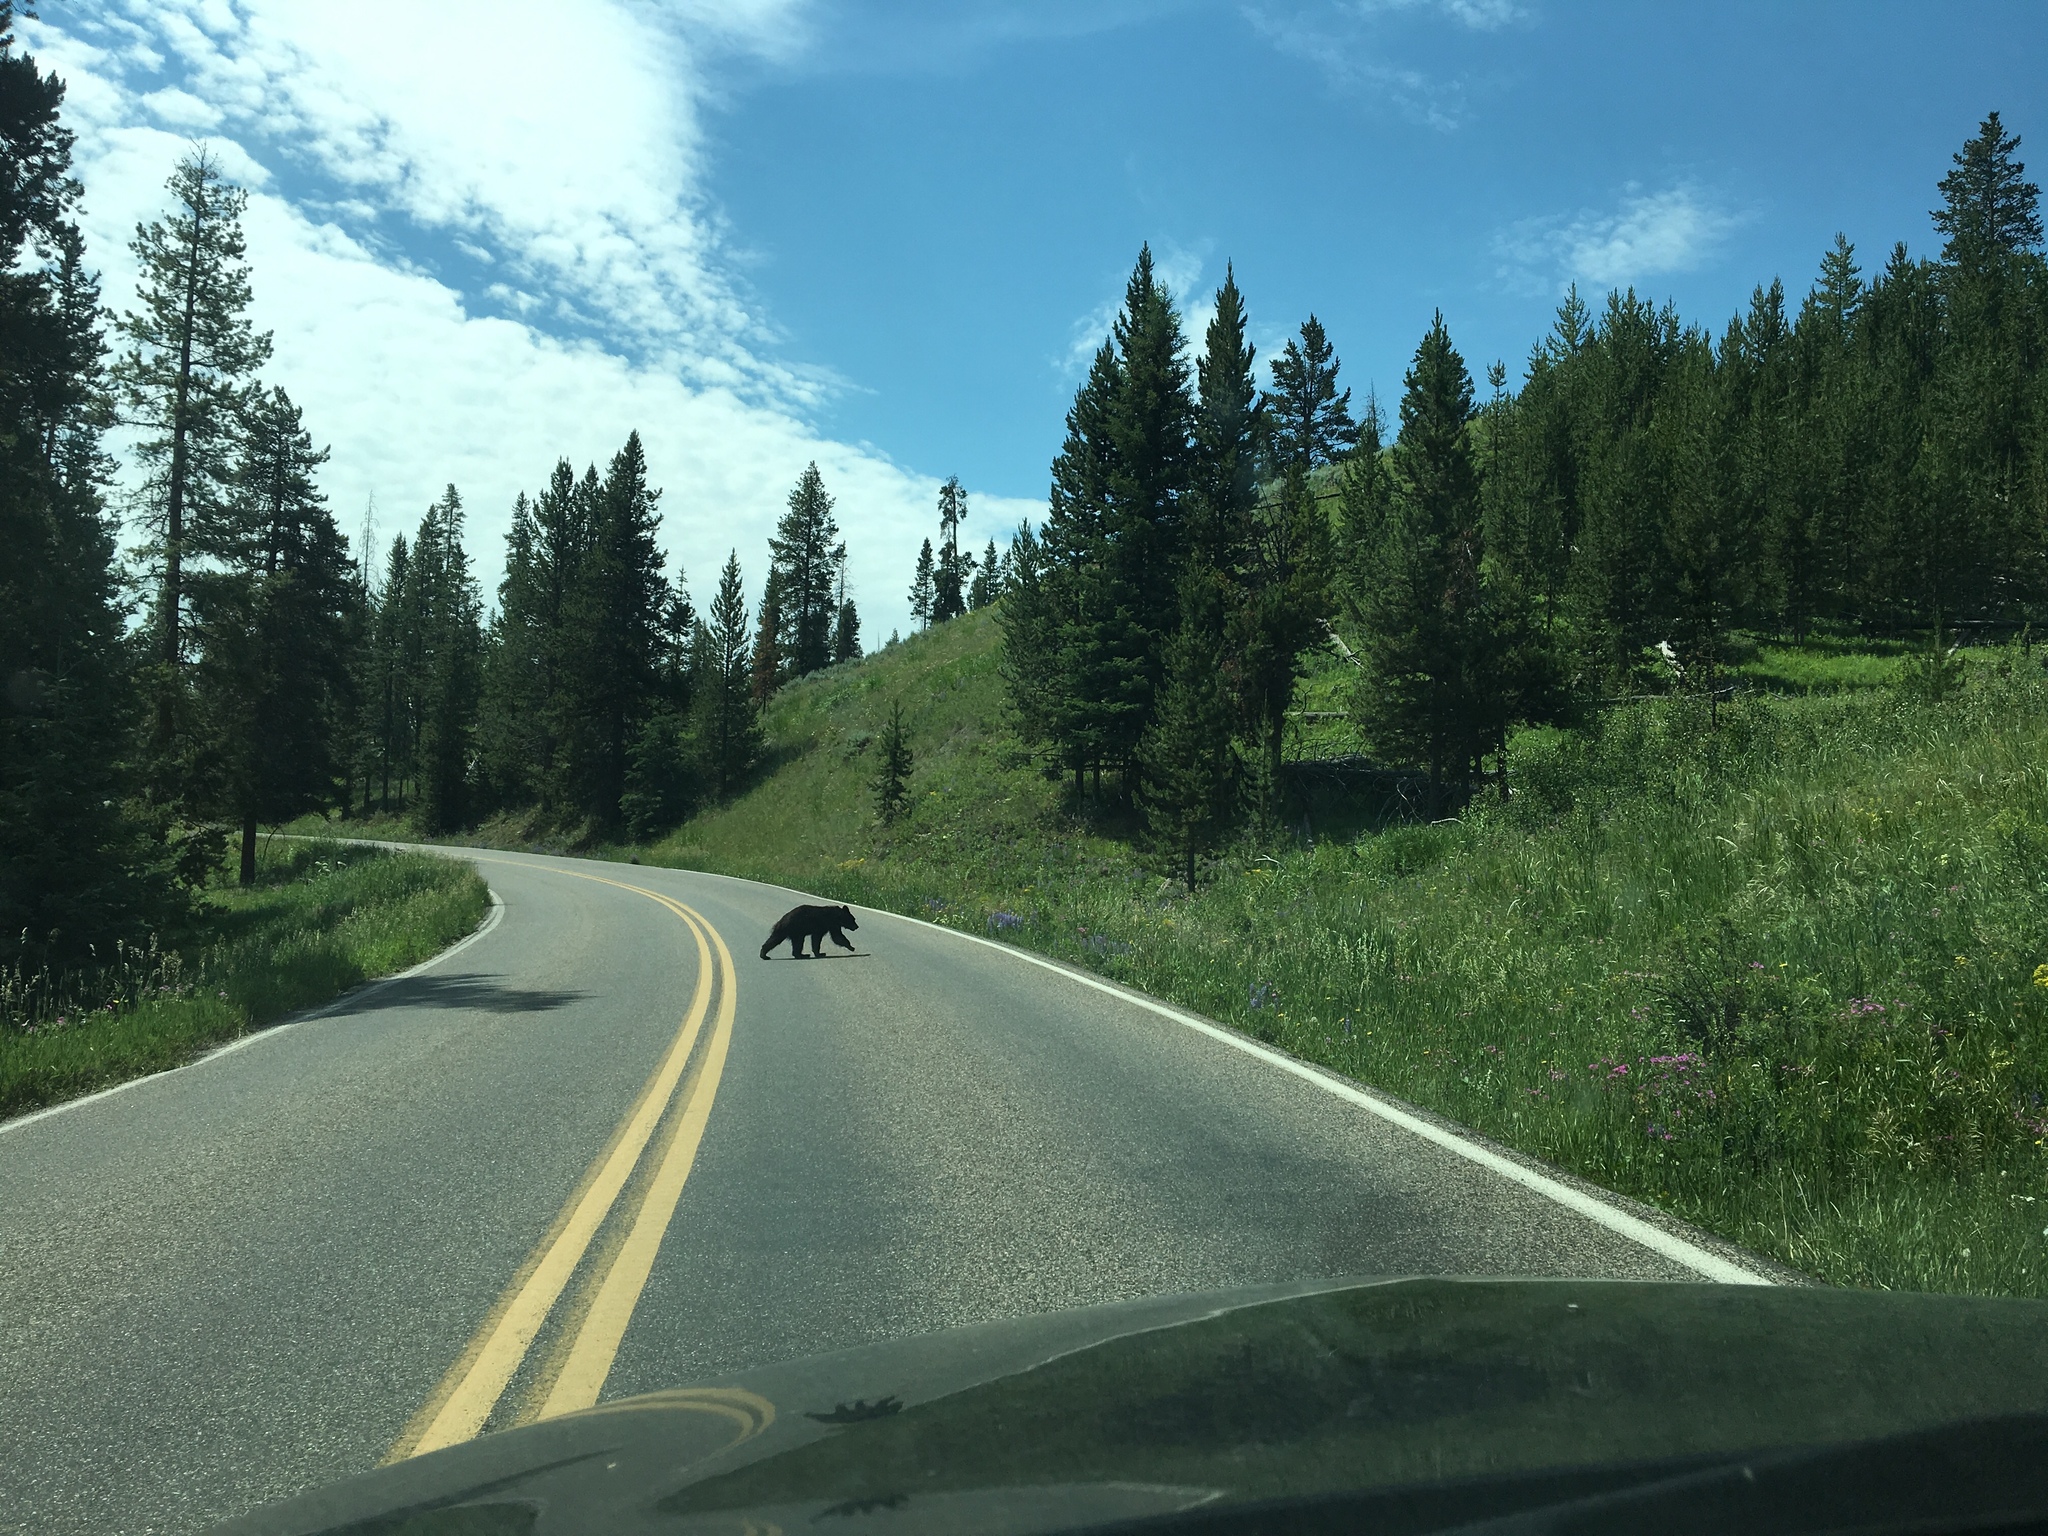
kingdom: Animalia
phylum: Chordata
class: Mammalia
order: Carnivora
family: Ursidae
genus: Ursus
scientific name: Ursus americanus
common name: American black bear
